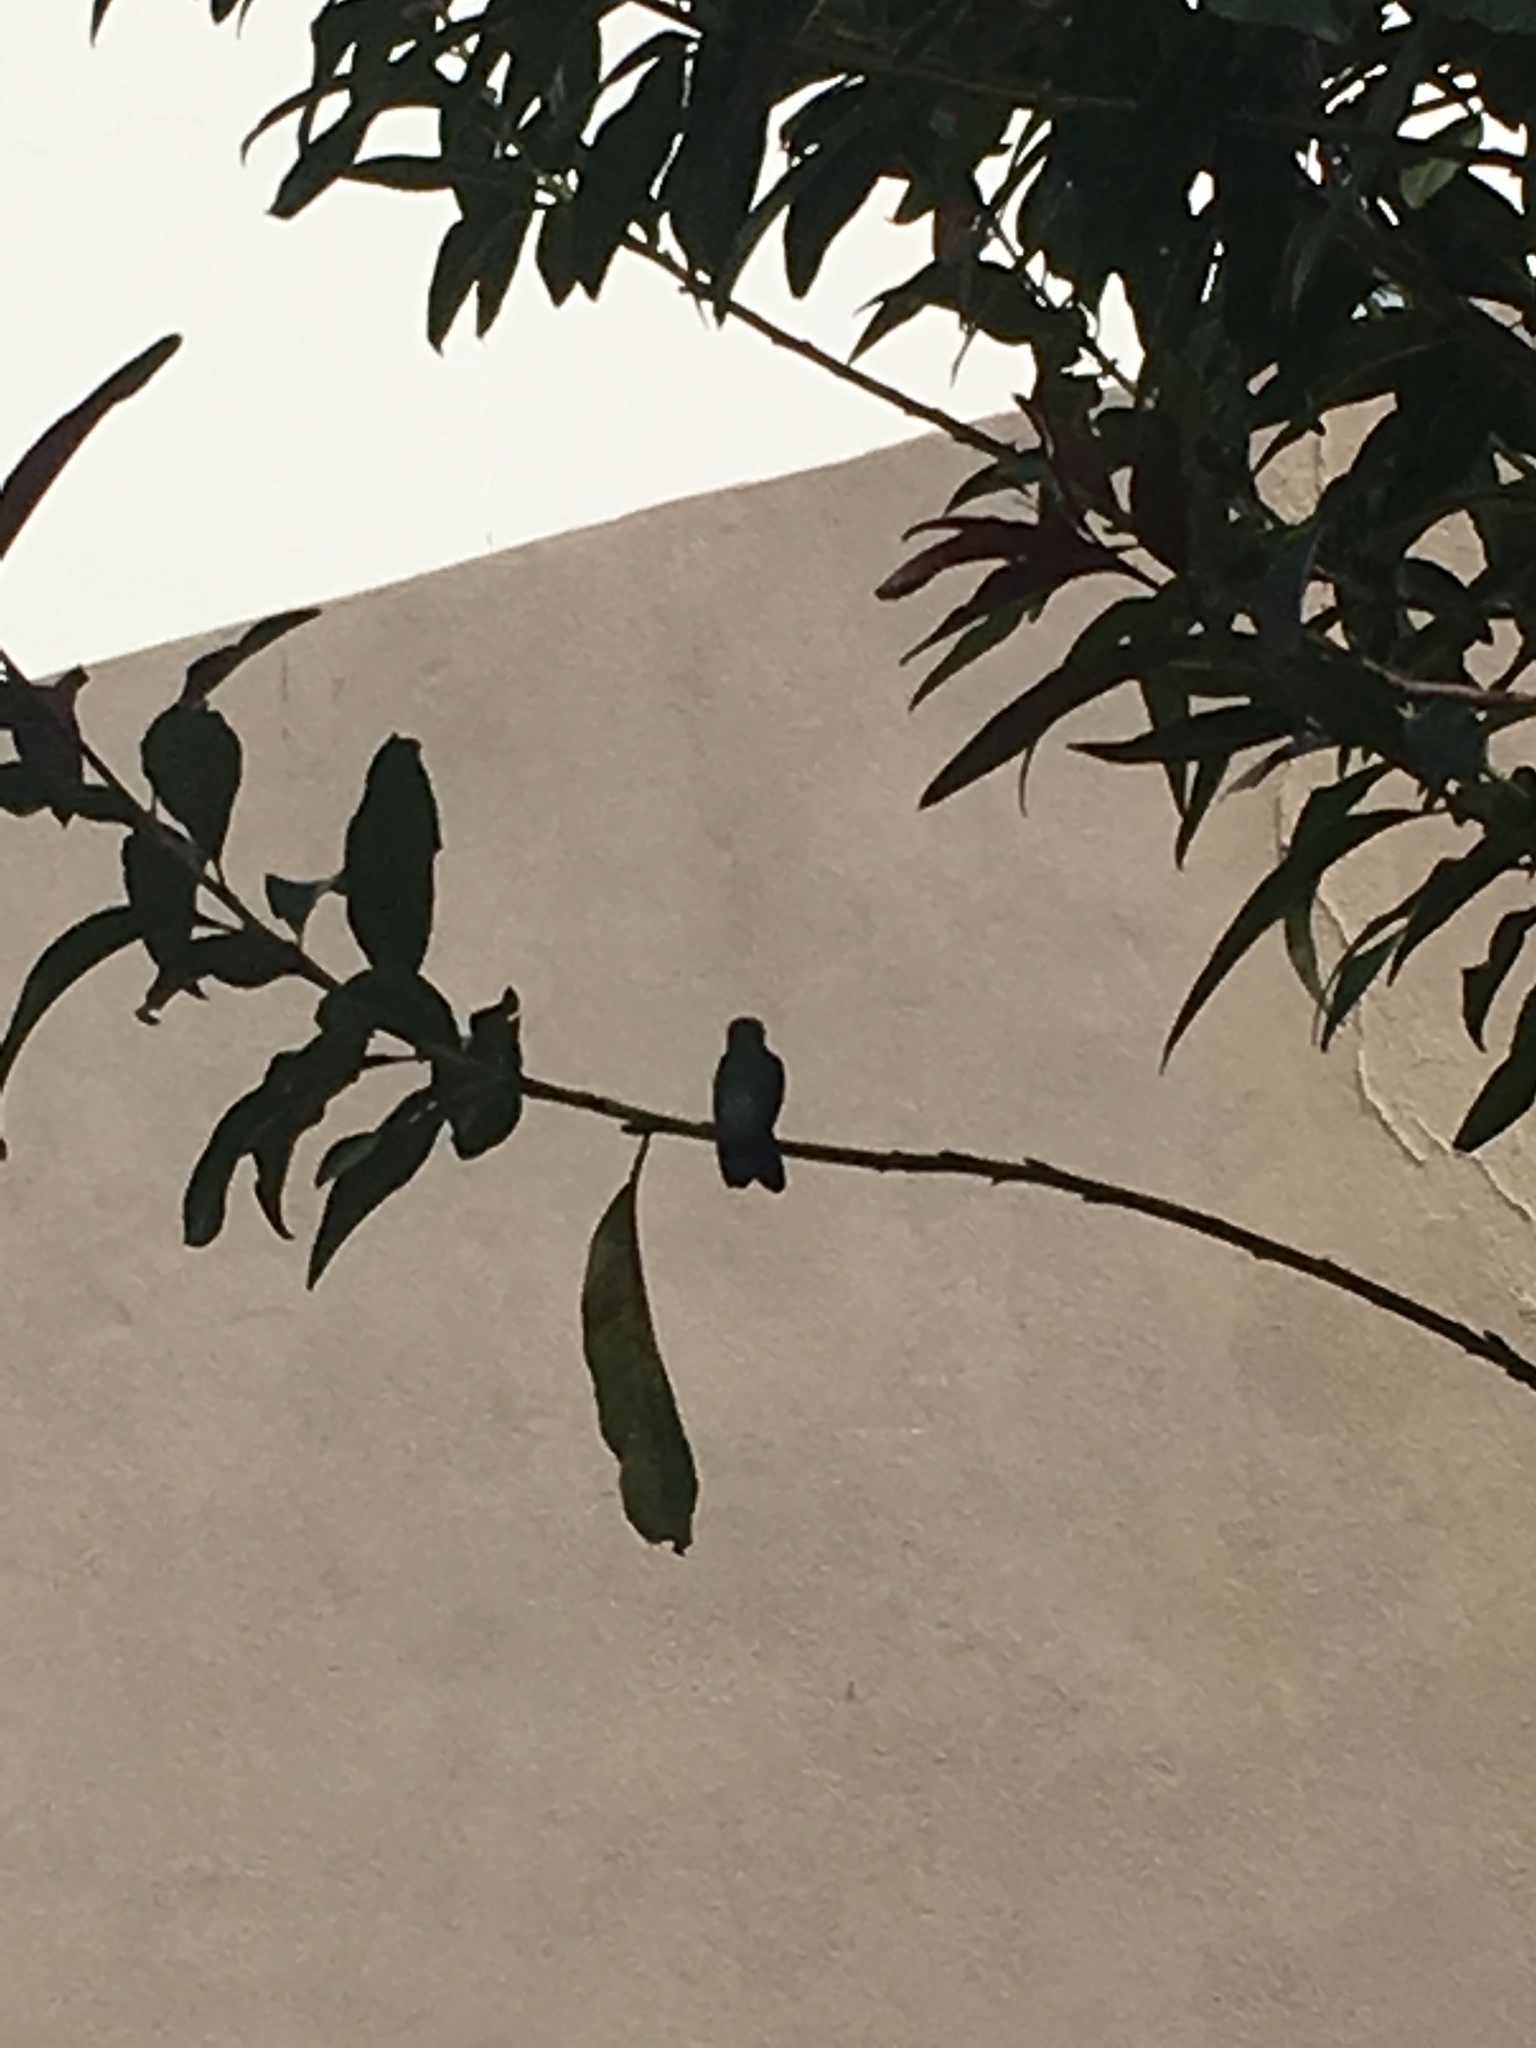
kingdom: Animalia
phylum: Chordata
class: Aves
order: Apodiformes
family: Trochilidae
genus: Cynanthus
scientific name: Cynanthus latirostris
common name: Broad-billed hummingbird
